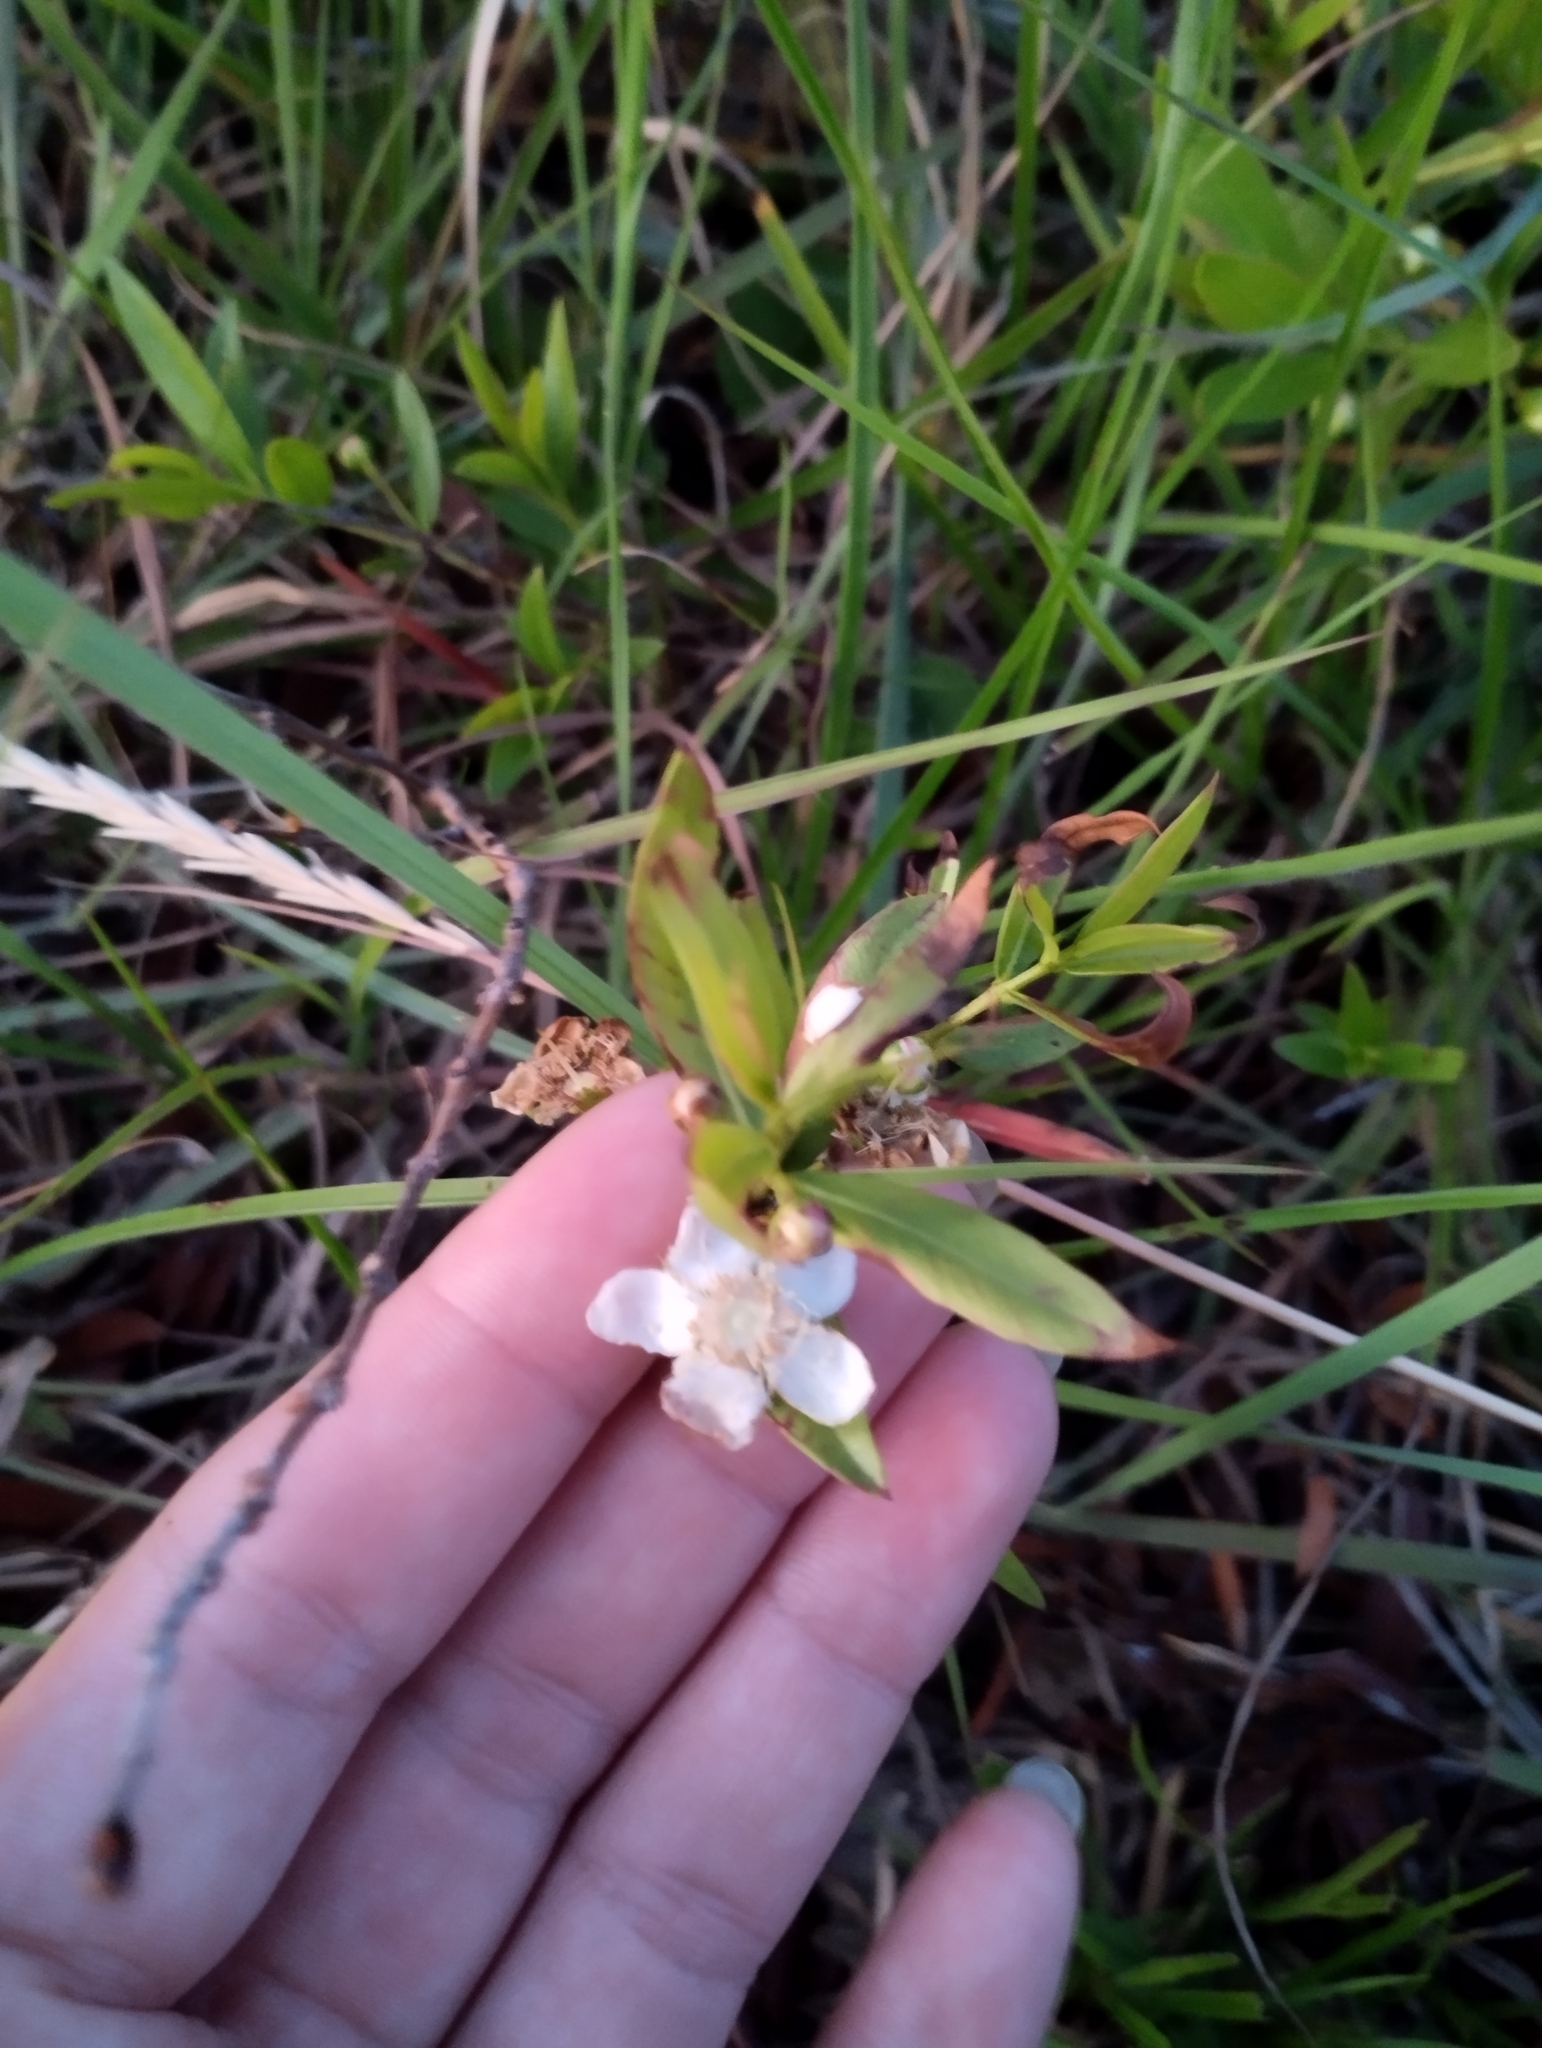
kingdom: Plantae
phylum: Tracheophyta
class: Magnoliopsida
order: Myrtales
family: Myrtaceae
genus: Psidium
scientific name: Psidium salutare
